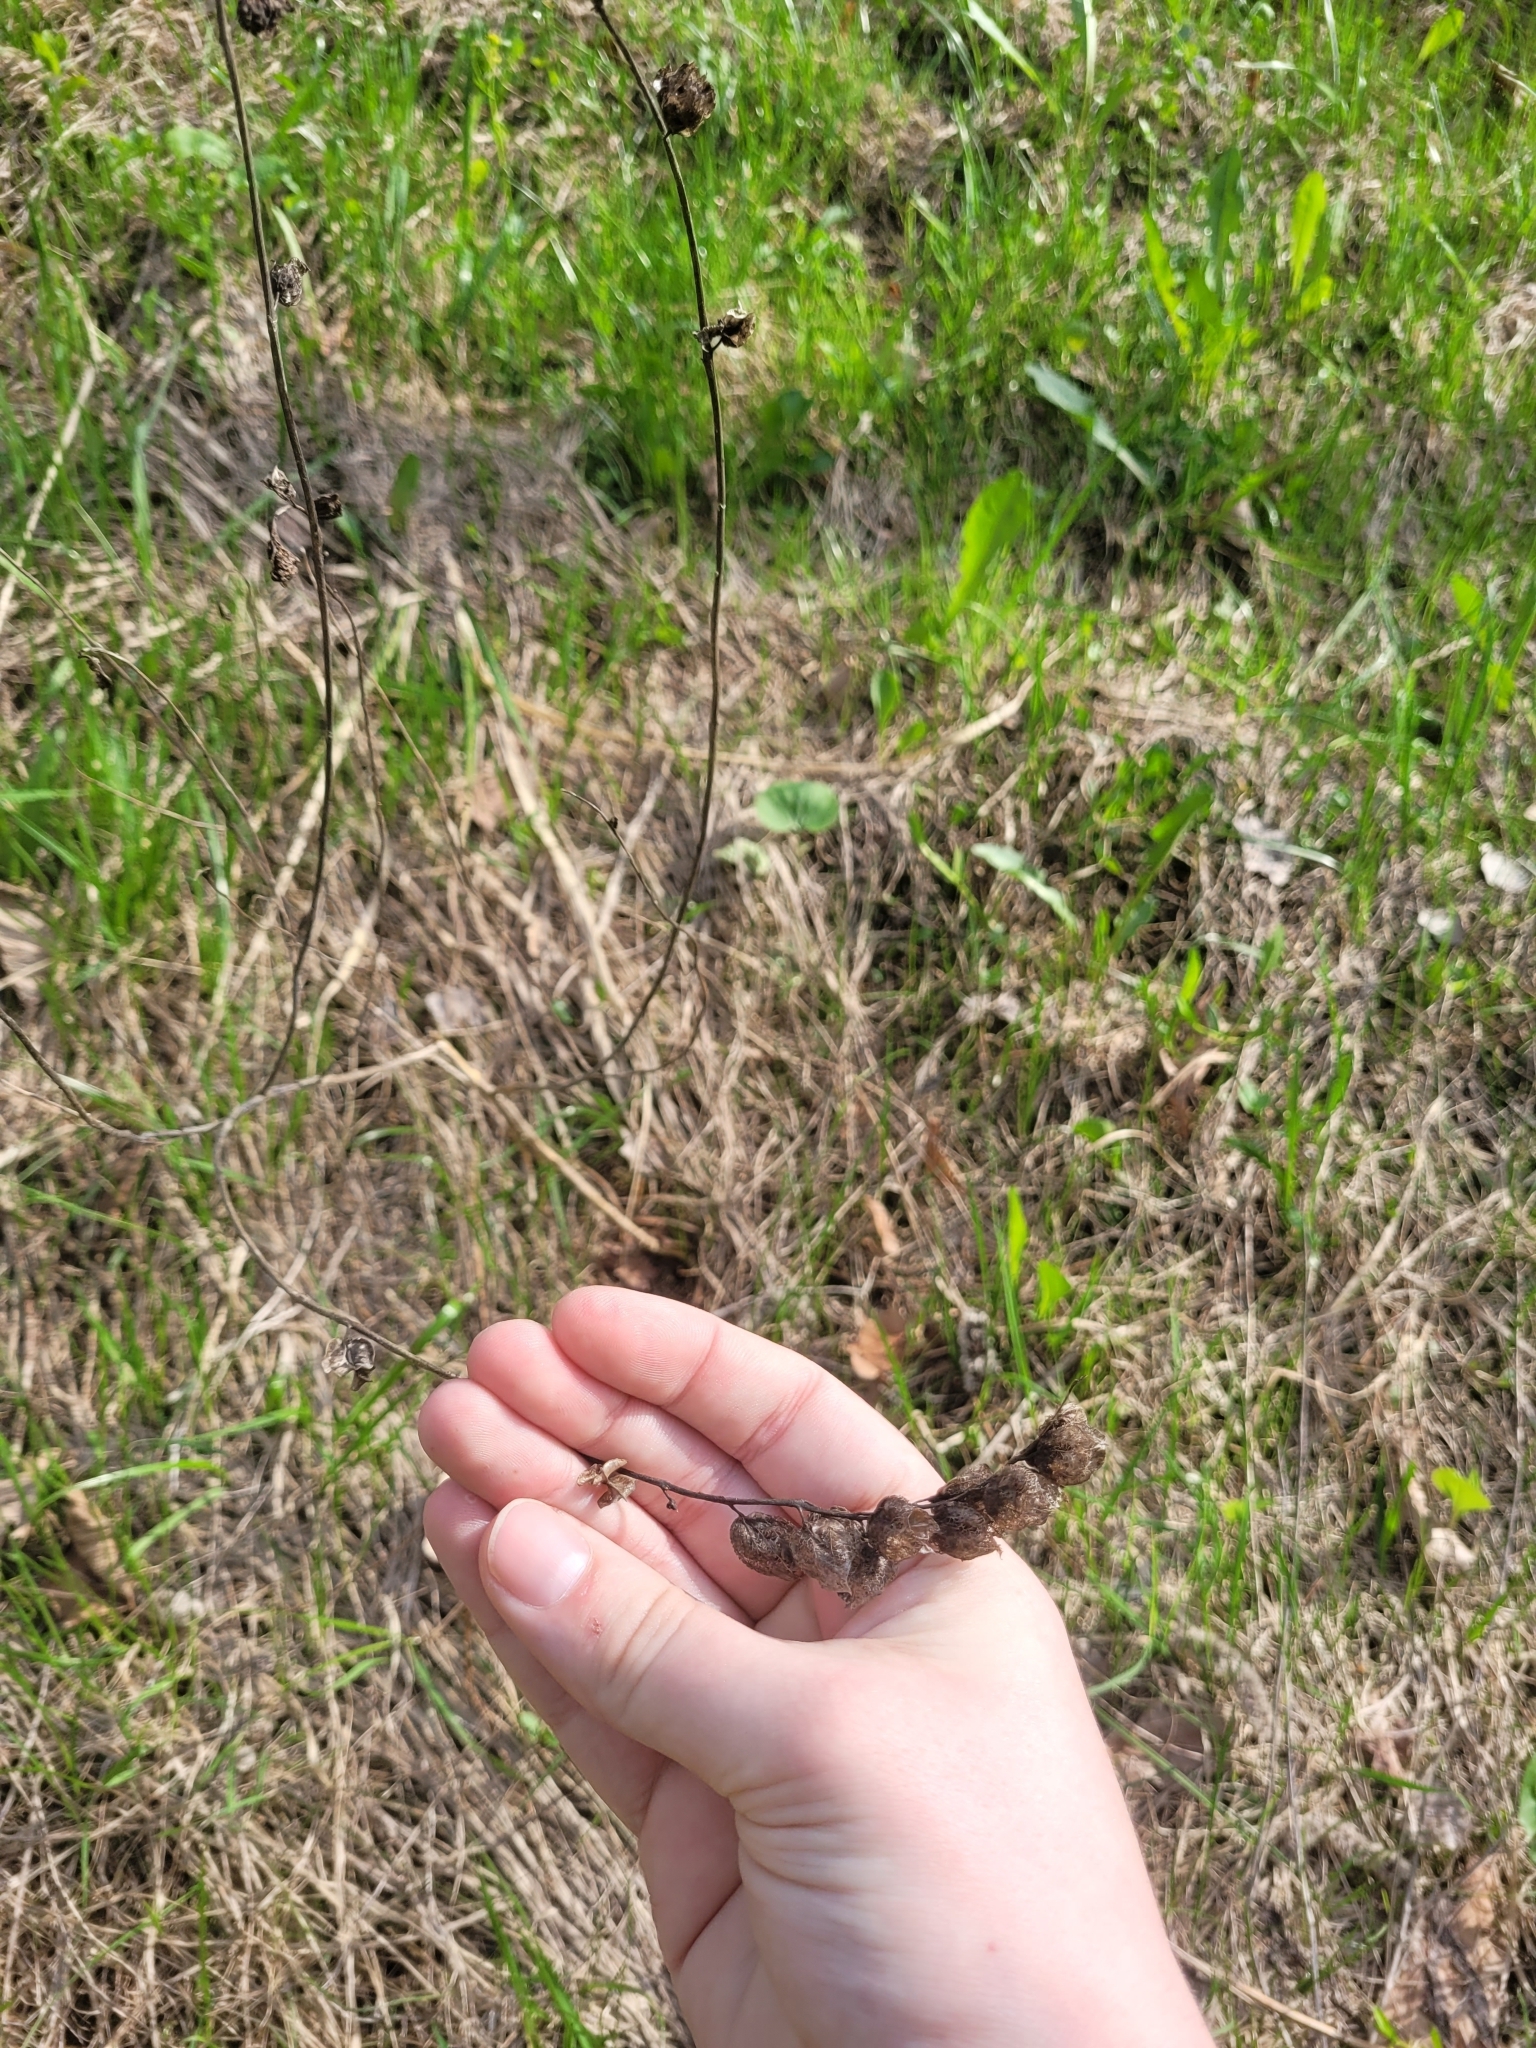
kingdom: Plantae
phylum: Tracheophyta
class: Magnoliopsida
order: Lamiales
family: Orobanchaceae
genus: Rhinanthus
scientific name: Rhinanthus serotinus
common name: Late-flowering yellow rattle
